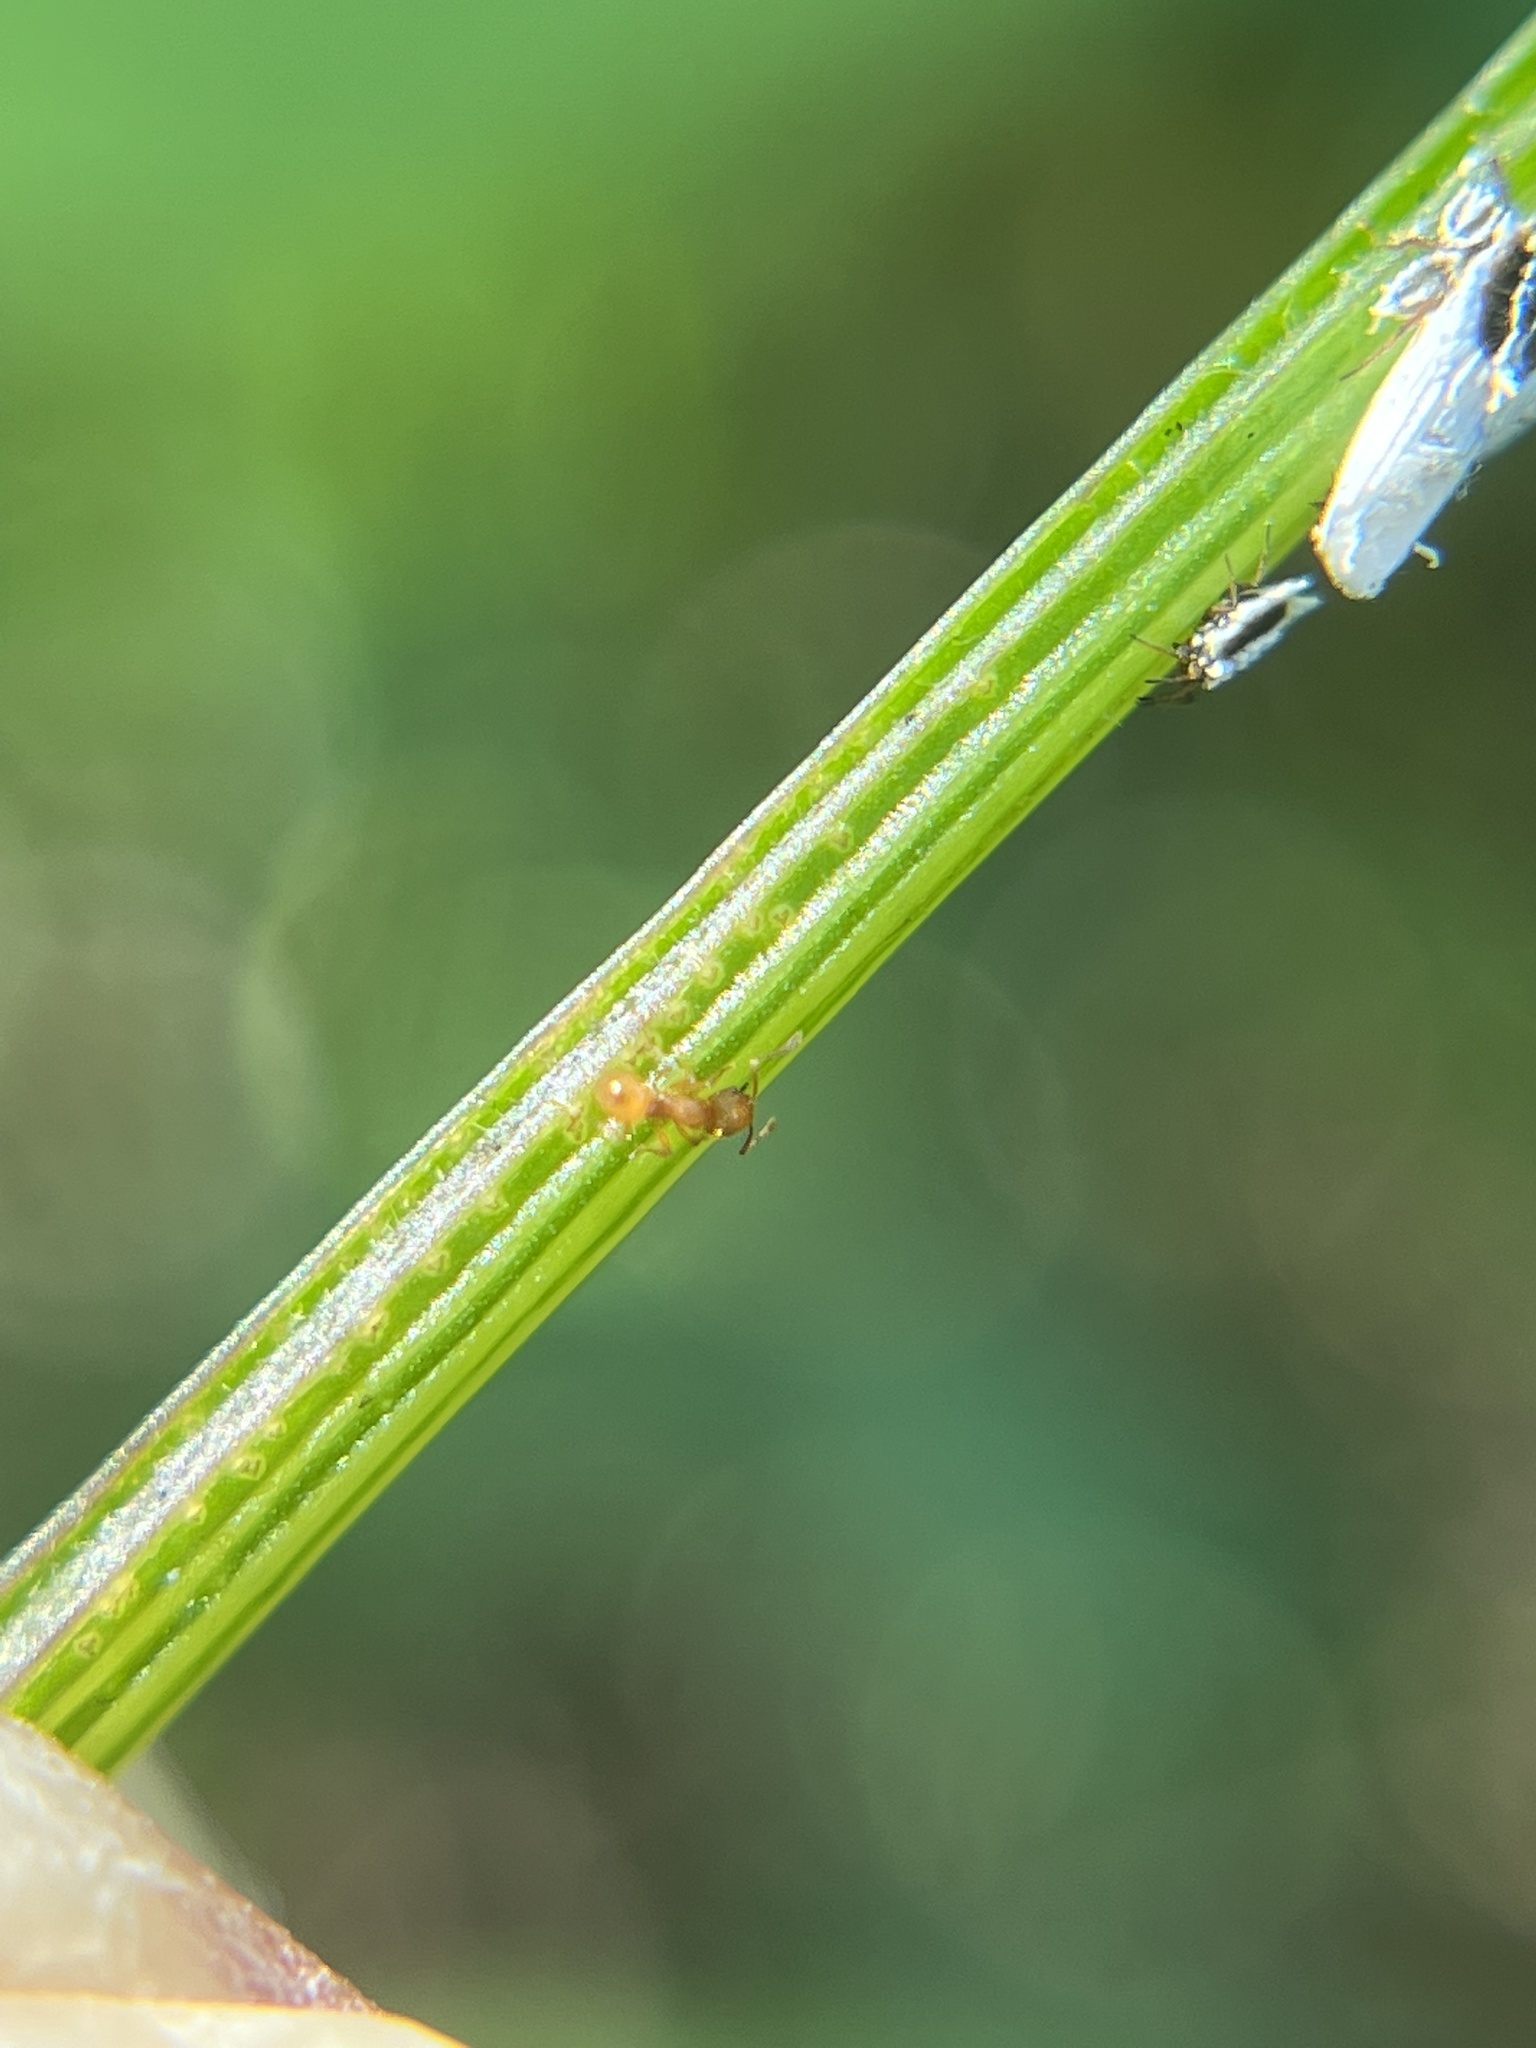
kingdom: Animalia
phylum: Arthropoda
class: Insecta
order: Hymenoptera
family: Formicidae
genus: Wasmannia
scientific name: Wasmannia auropunctata
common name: Little fire ant
